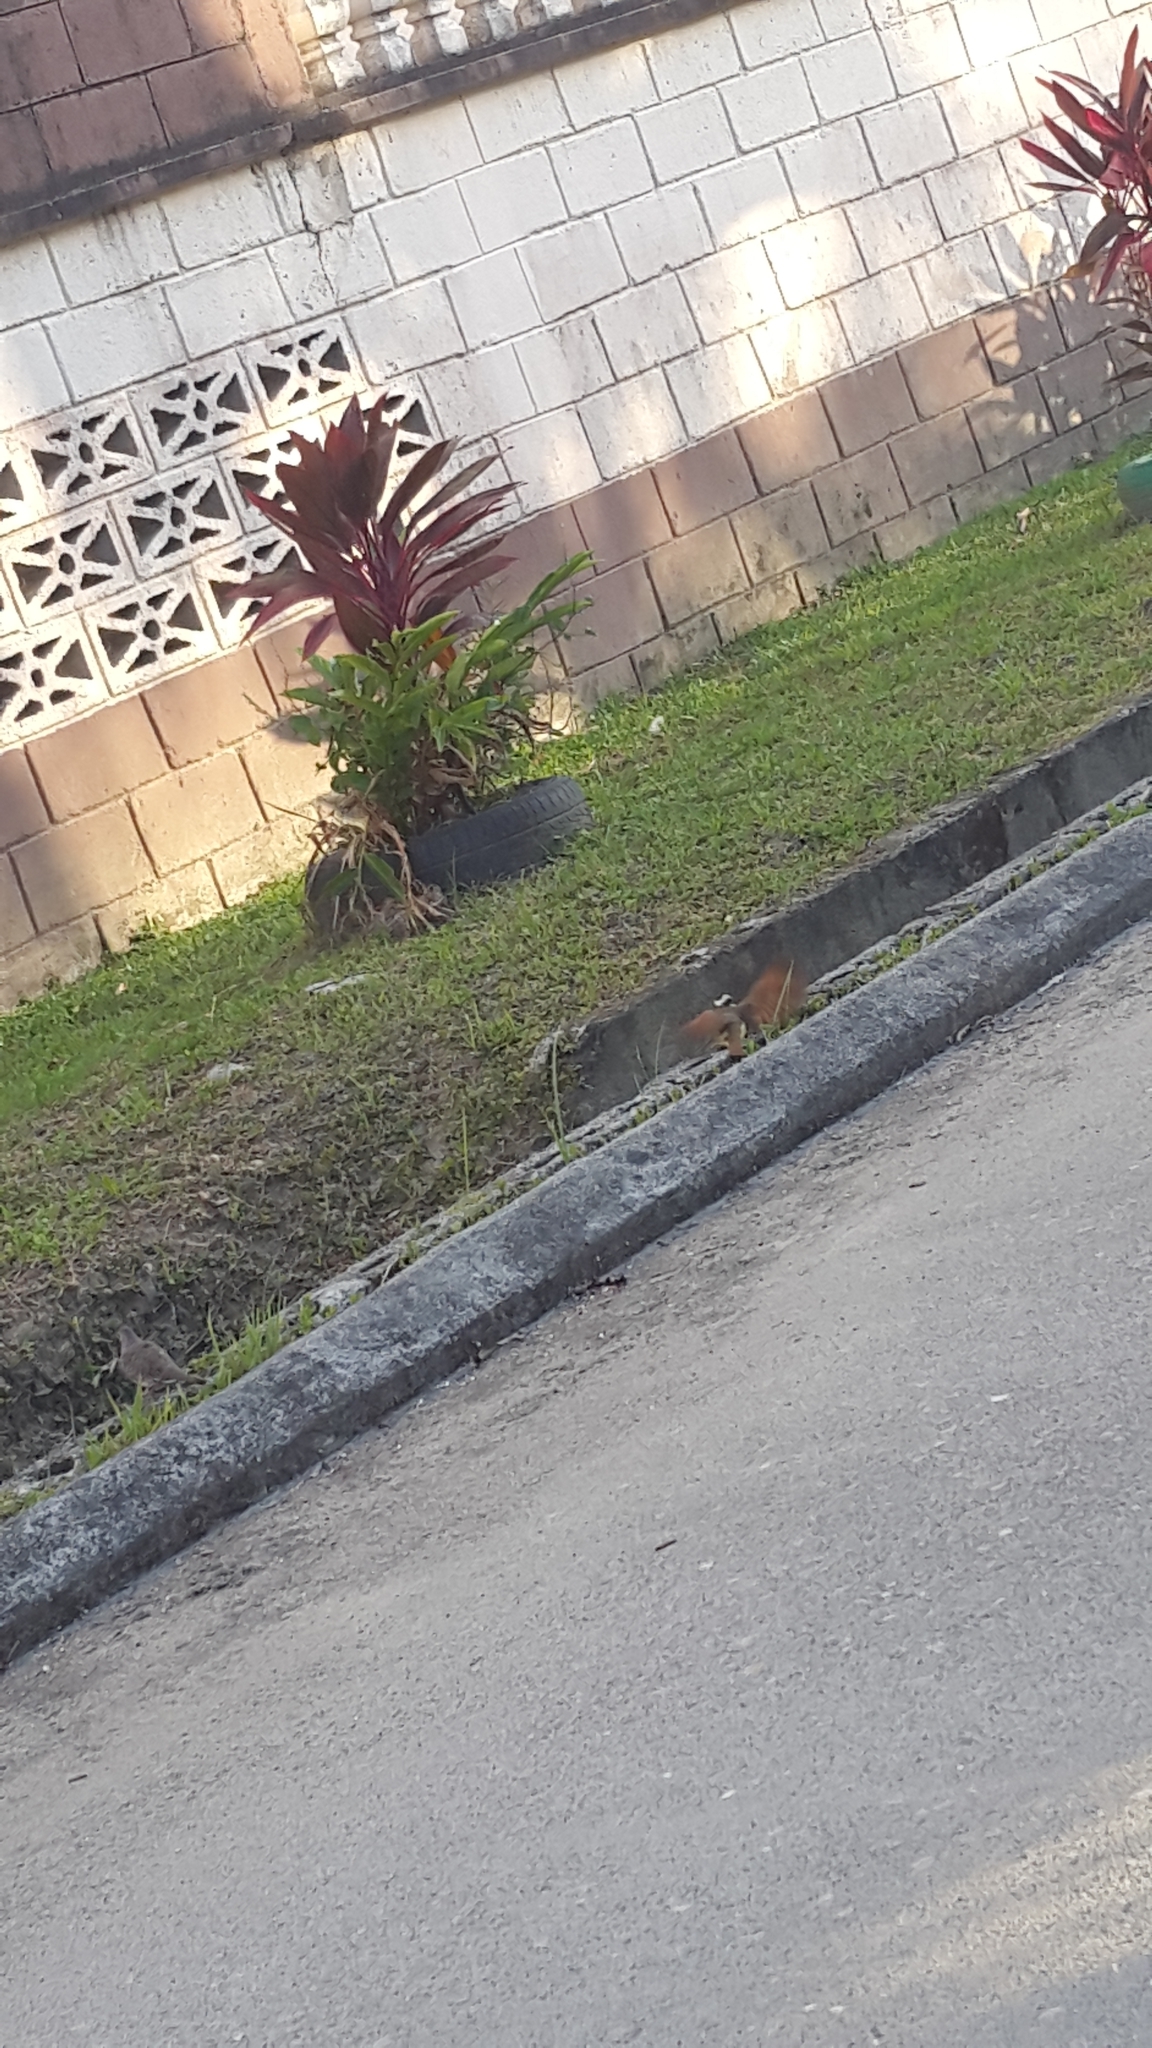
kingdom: Animalia
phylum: Chordata
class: Aves
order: Passeriformes
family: Tyrannidae
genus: Pitangus
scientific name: Pitangus sulphuratus
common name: Great kiskadee
